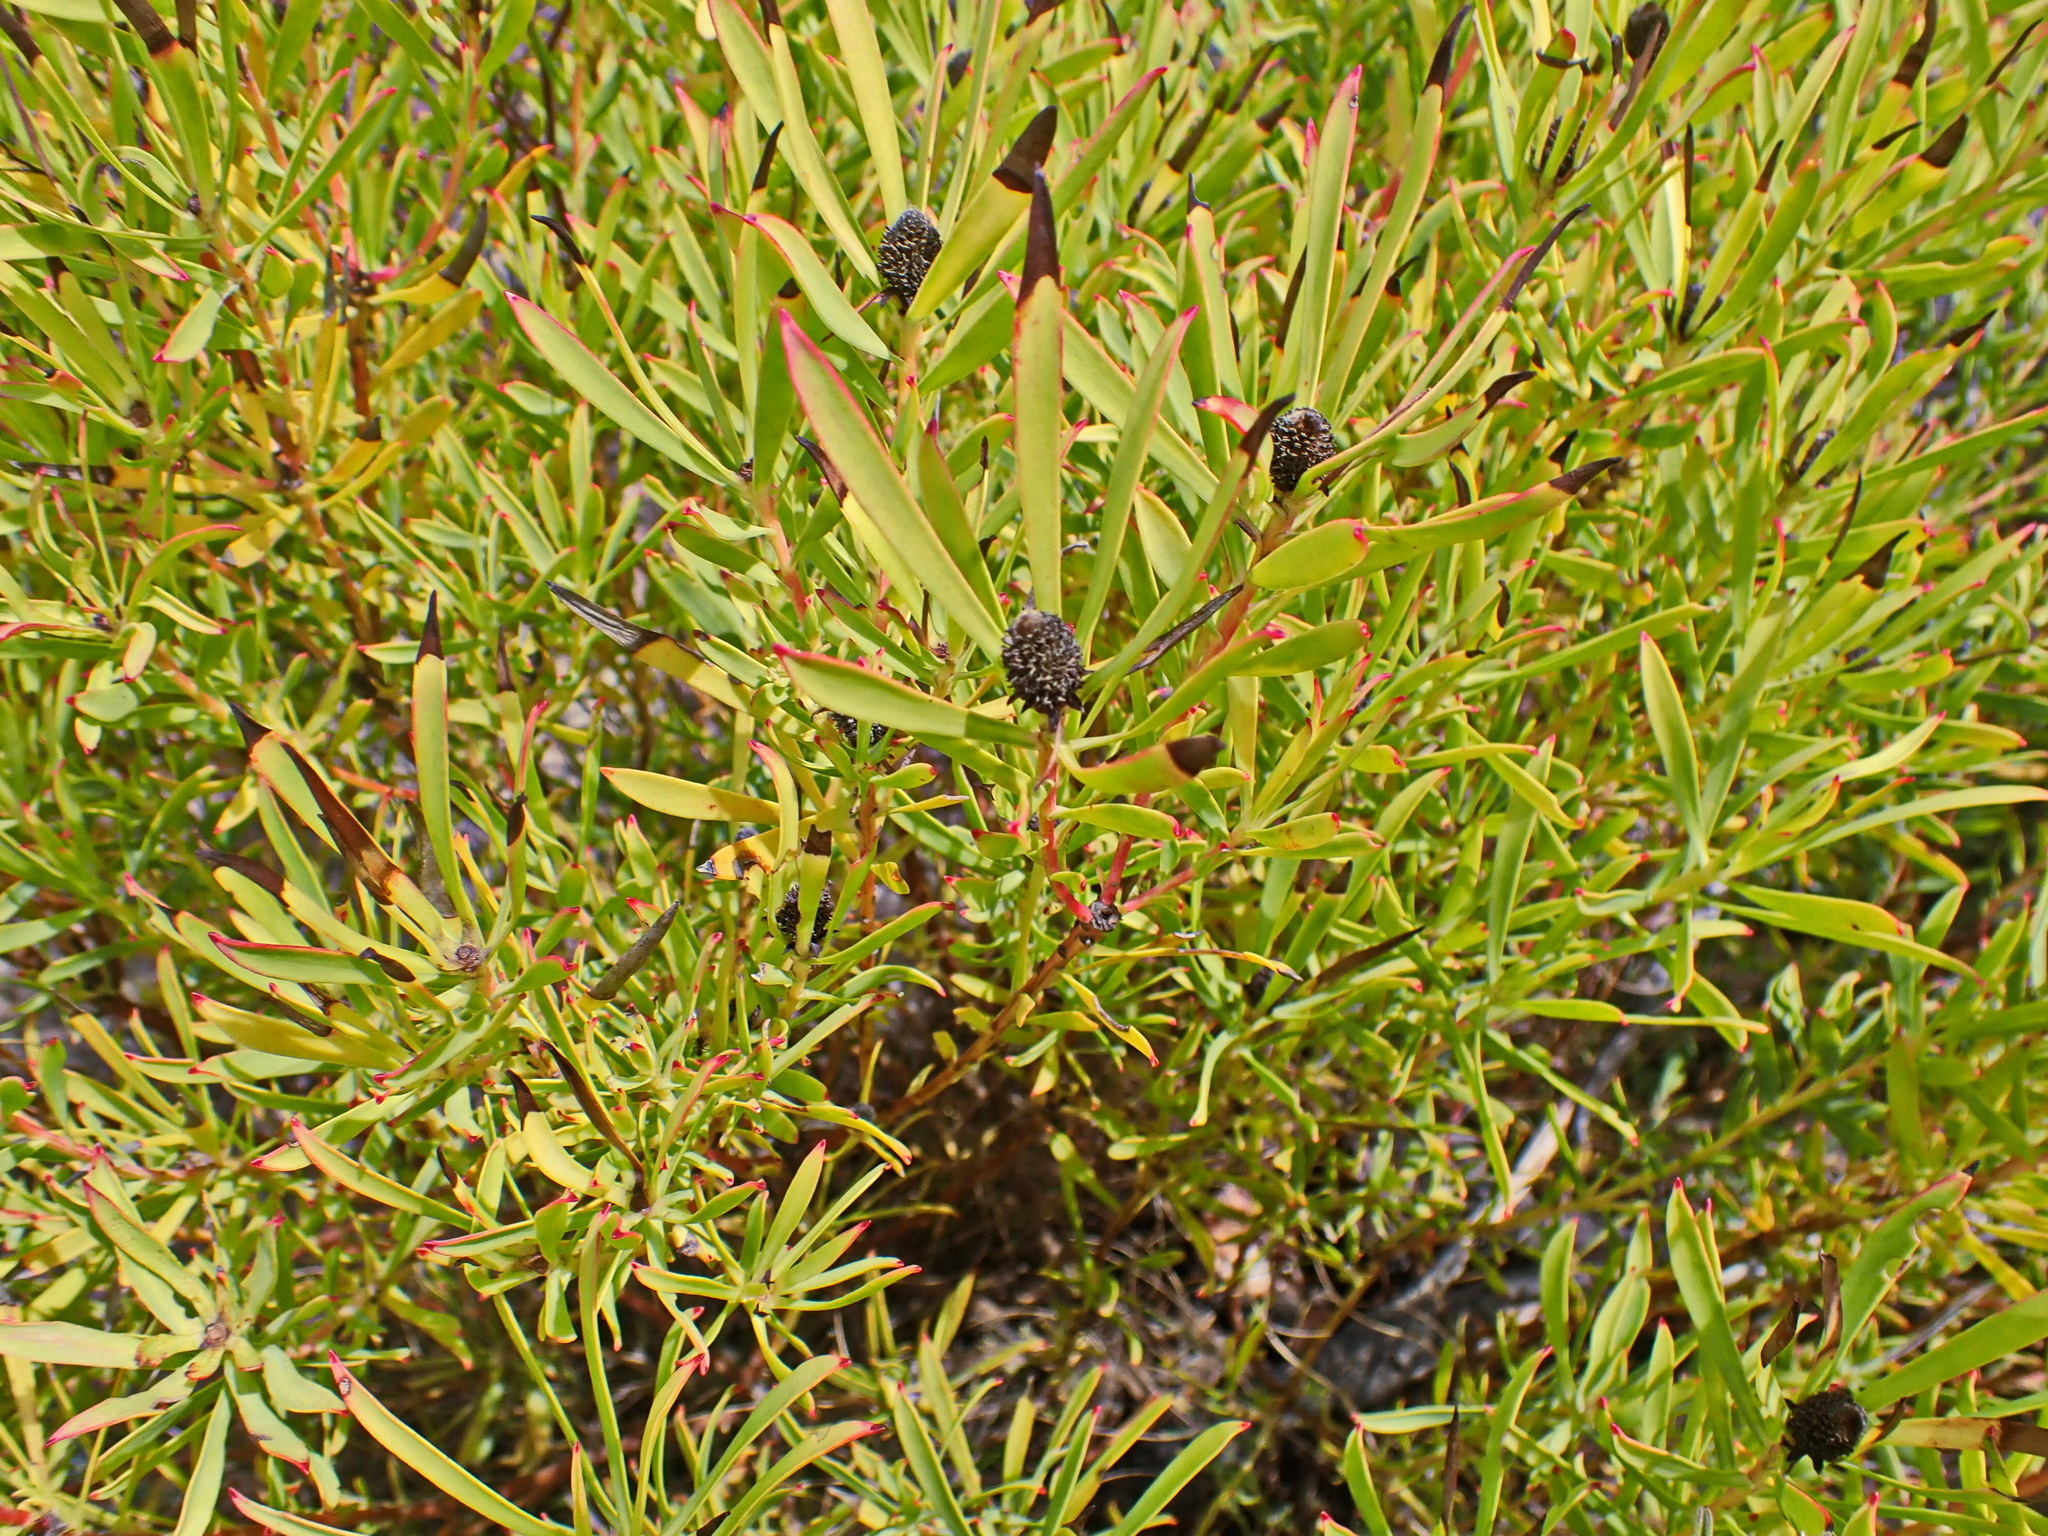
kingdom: Plantae
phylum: Tracheophyta
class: Magnoliopsida
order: Proteales
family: Proteaceae
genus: Leucadendron
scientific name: Leucadendron salignum
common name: Common sunshine conebush
